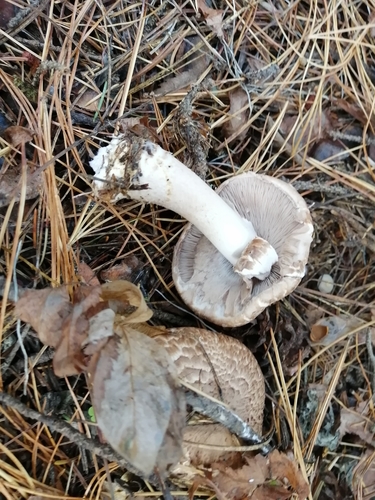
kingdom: Fungi
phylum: Basidiomycota
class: Agaricomycetes
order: Agaricales
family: Agaricaceae
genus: Agaricus
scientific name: Agaricus sylvaticus
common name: Blushing wood mushroom
